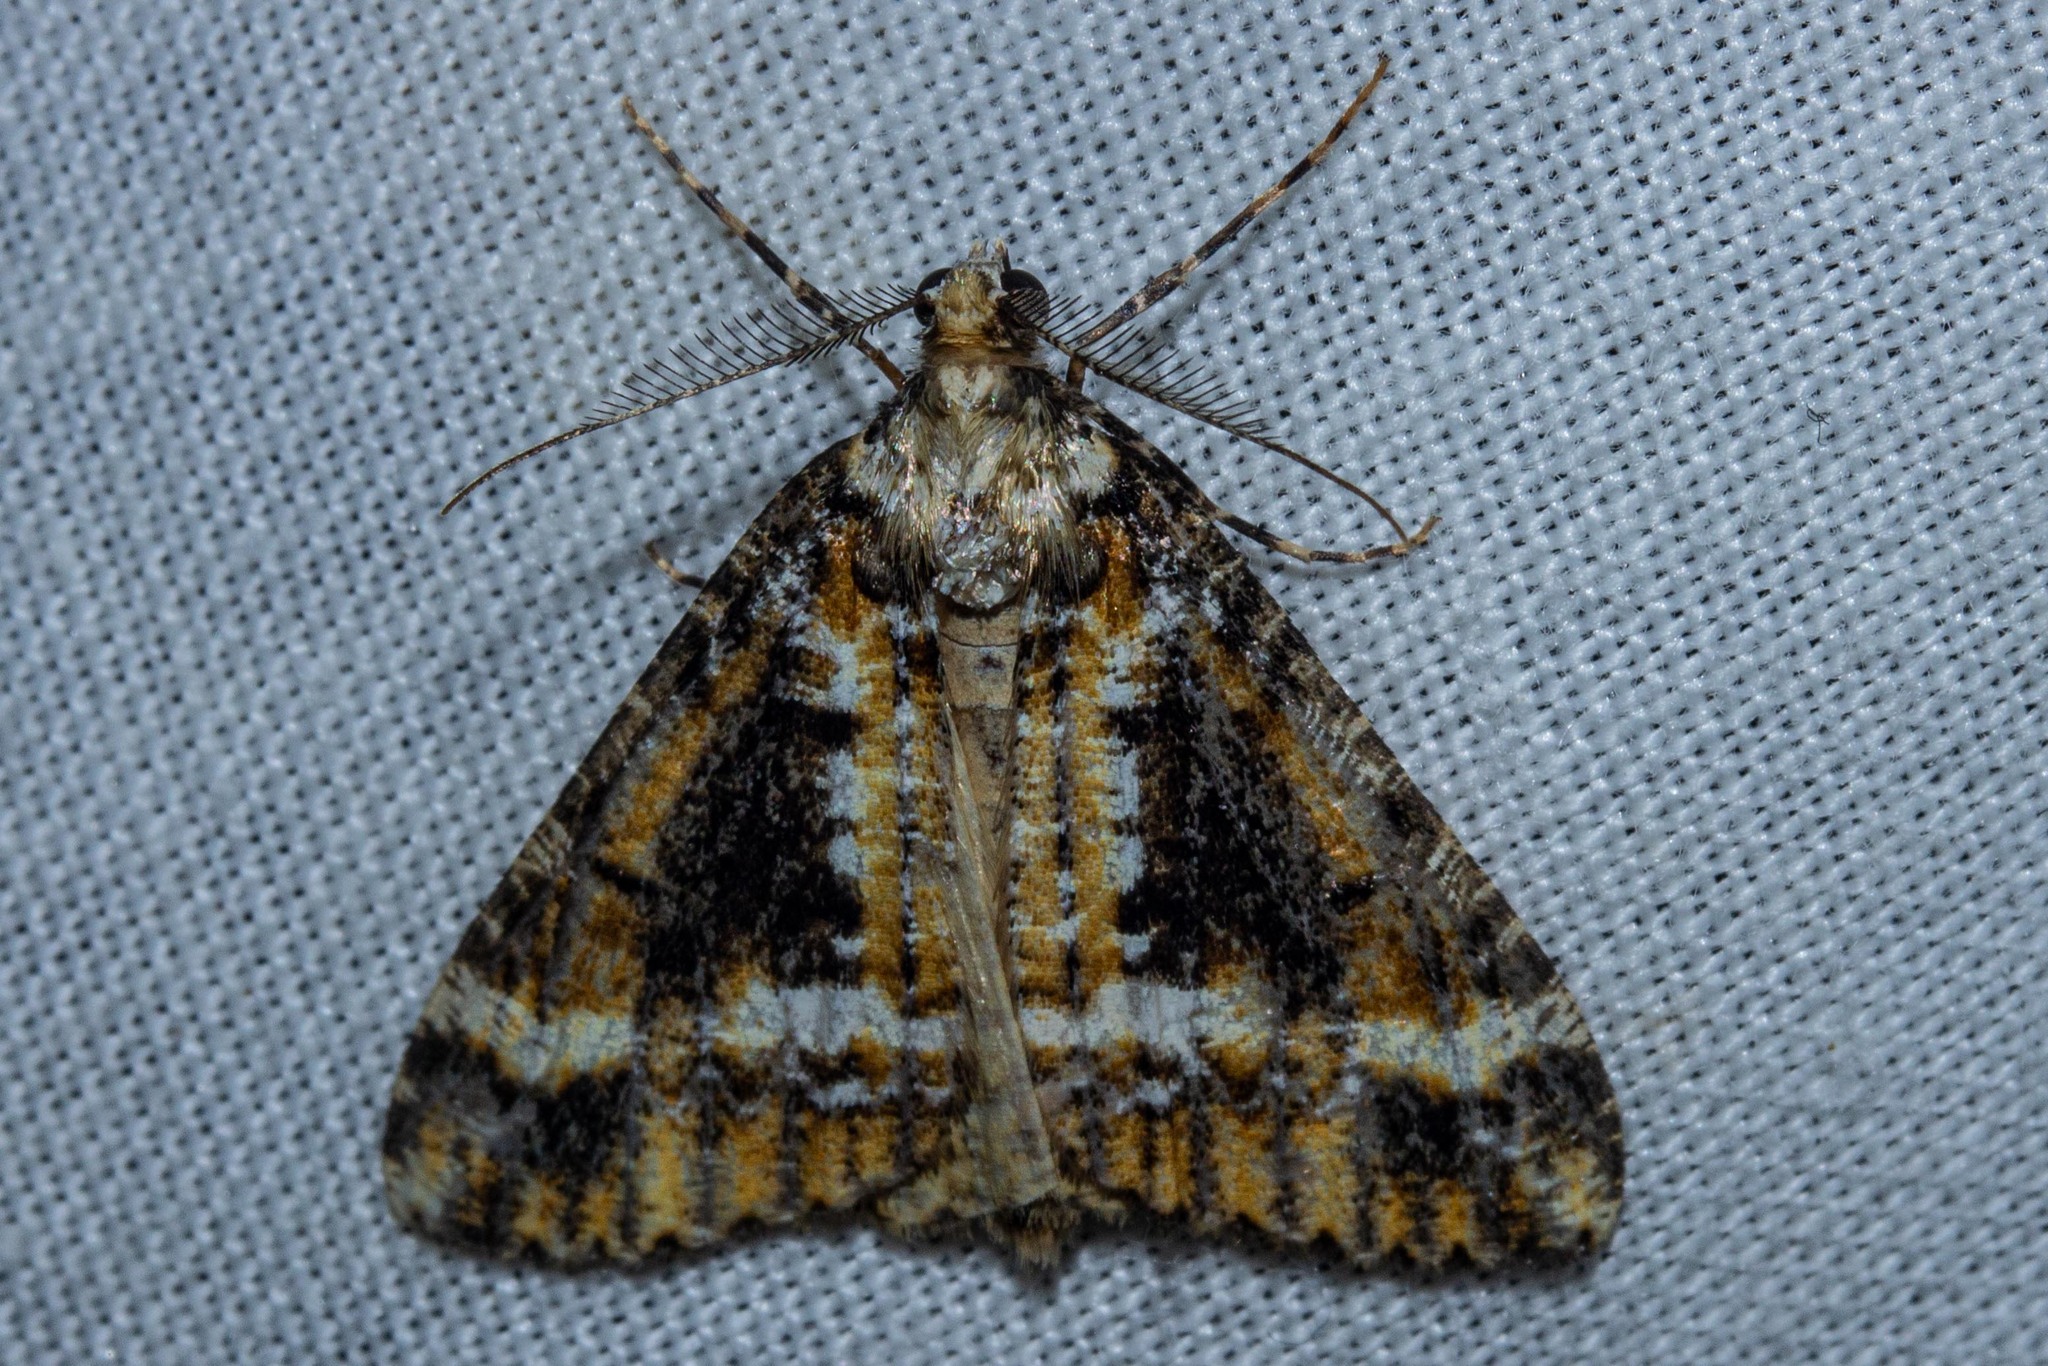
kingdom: Animalia
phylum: Arthropoda
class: Insecta
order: Lepidoptera
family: Geometridae
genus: Pseudocoremia
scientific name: Pseudocoremia leucelaea
